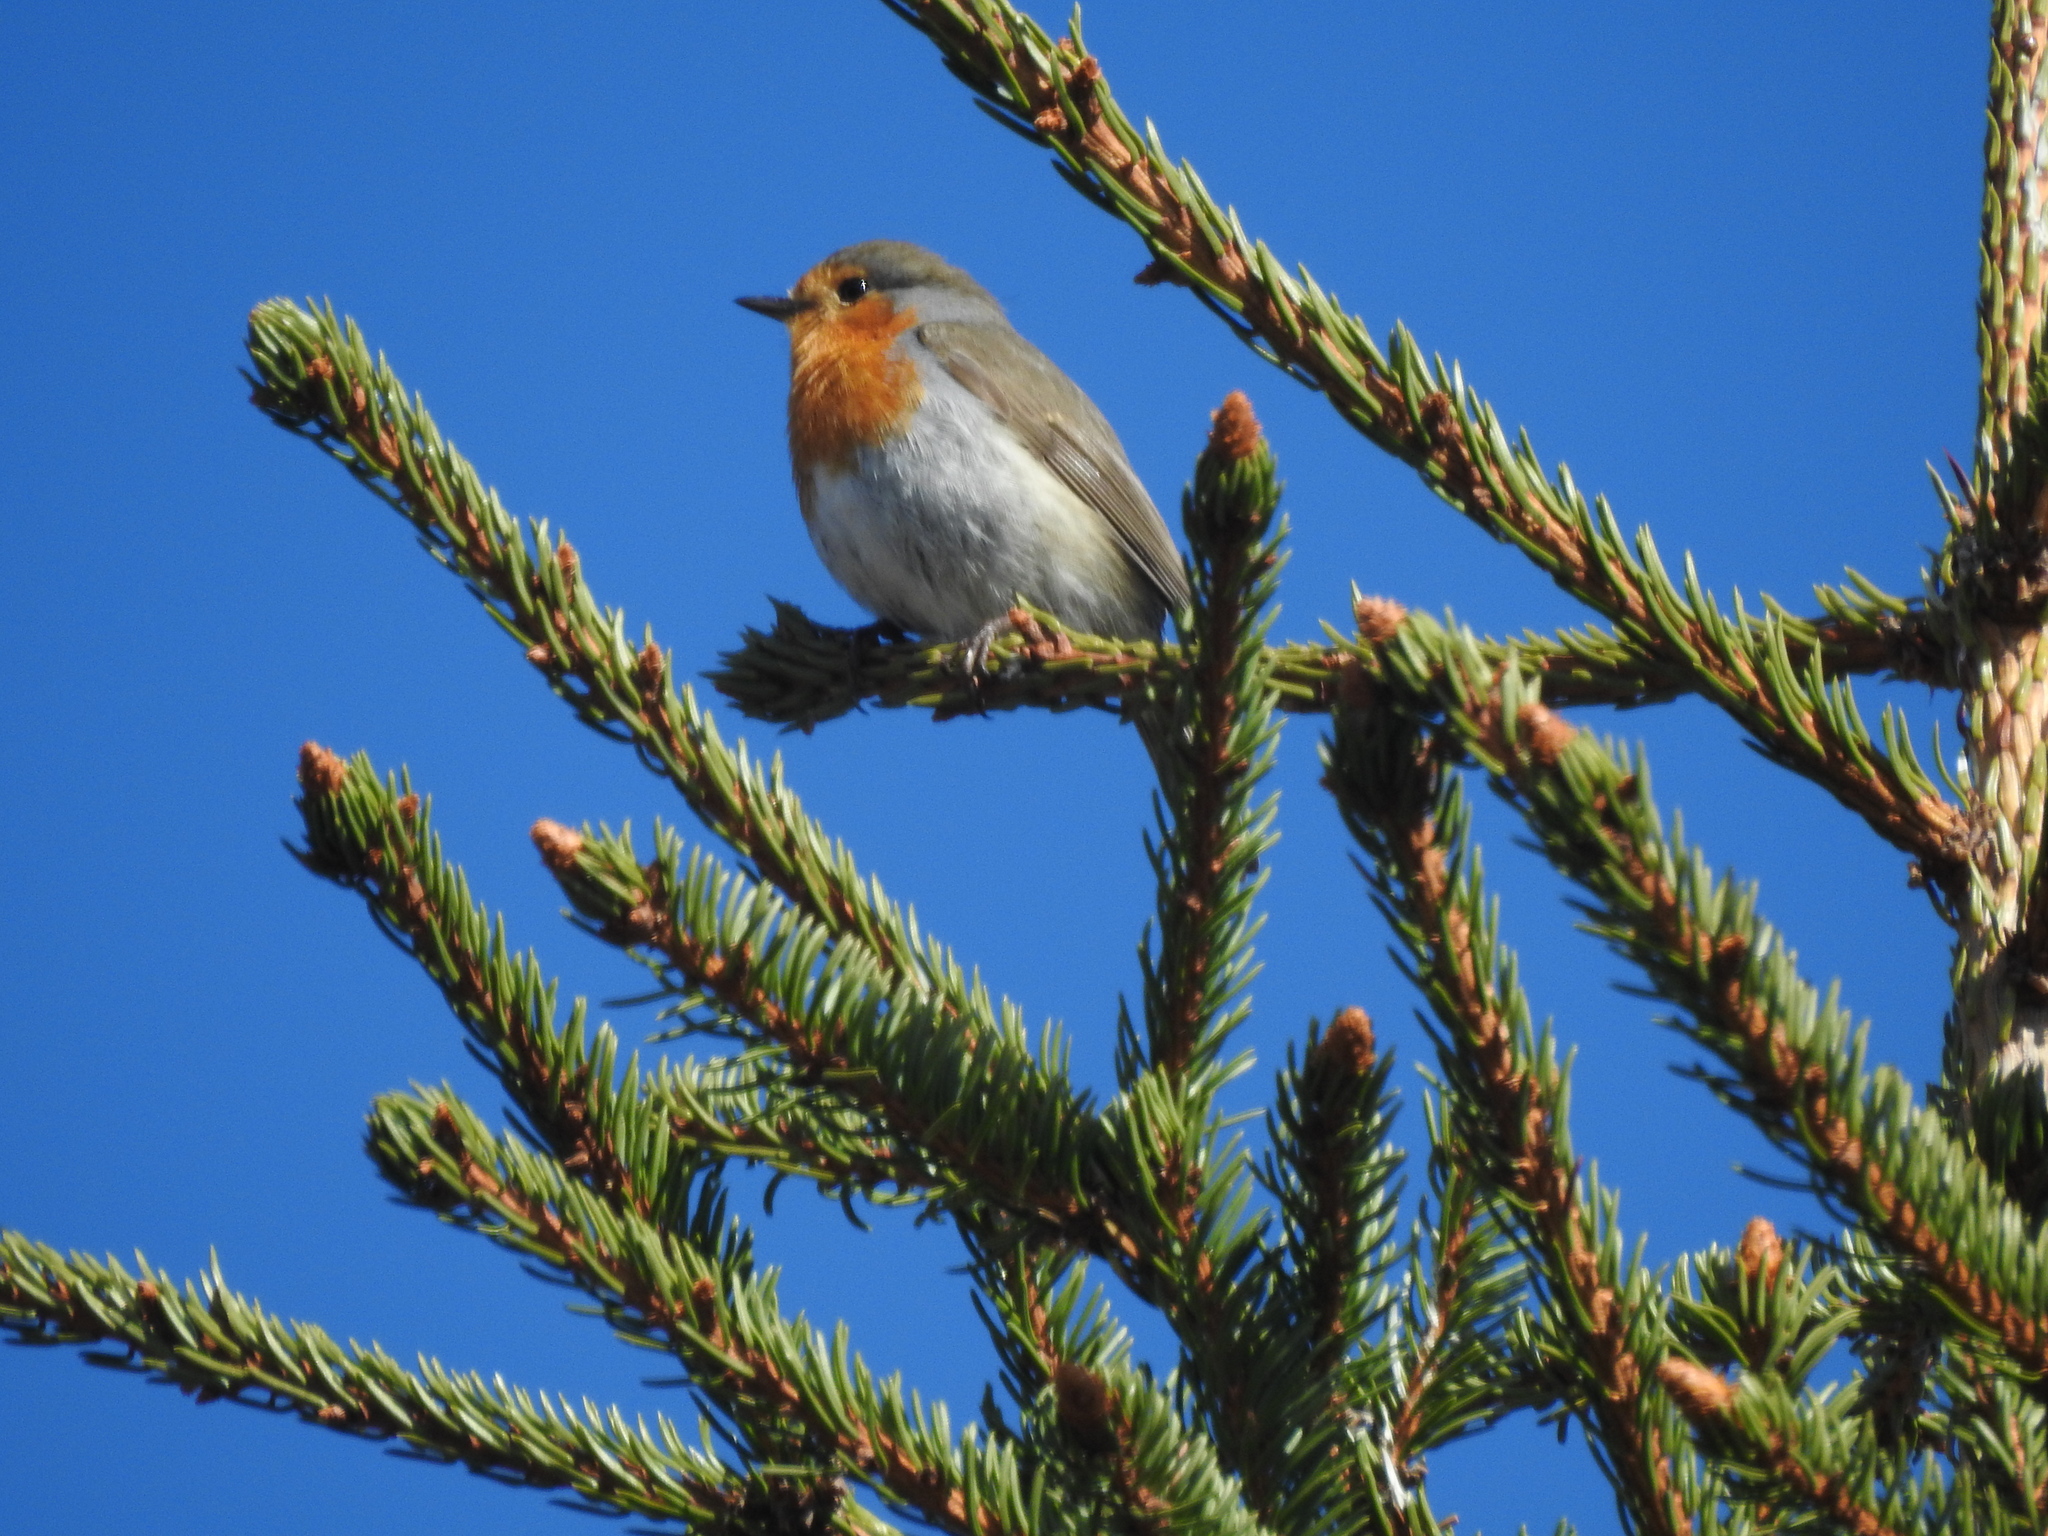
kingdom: Animalia
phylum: Chordata
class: Aves
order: Passeriformes
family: Muscicapidae
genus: Erithacus
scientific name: Erithacus rubecula
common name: European robin
